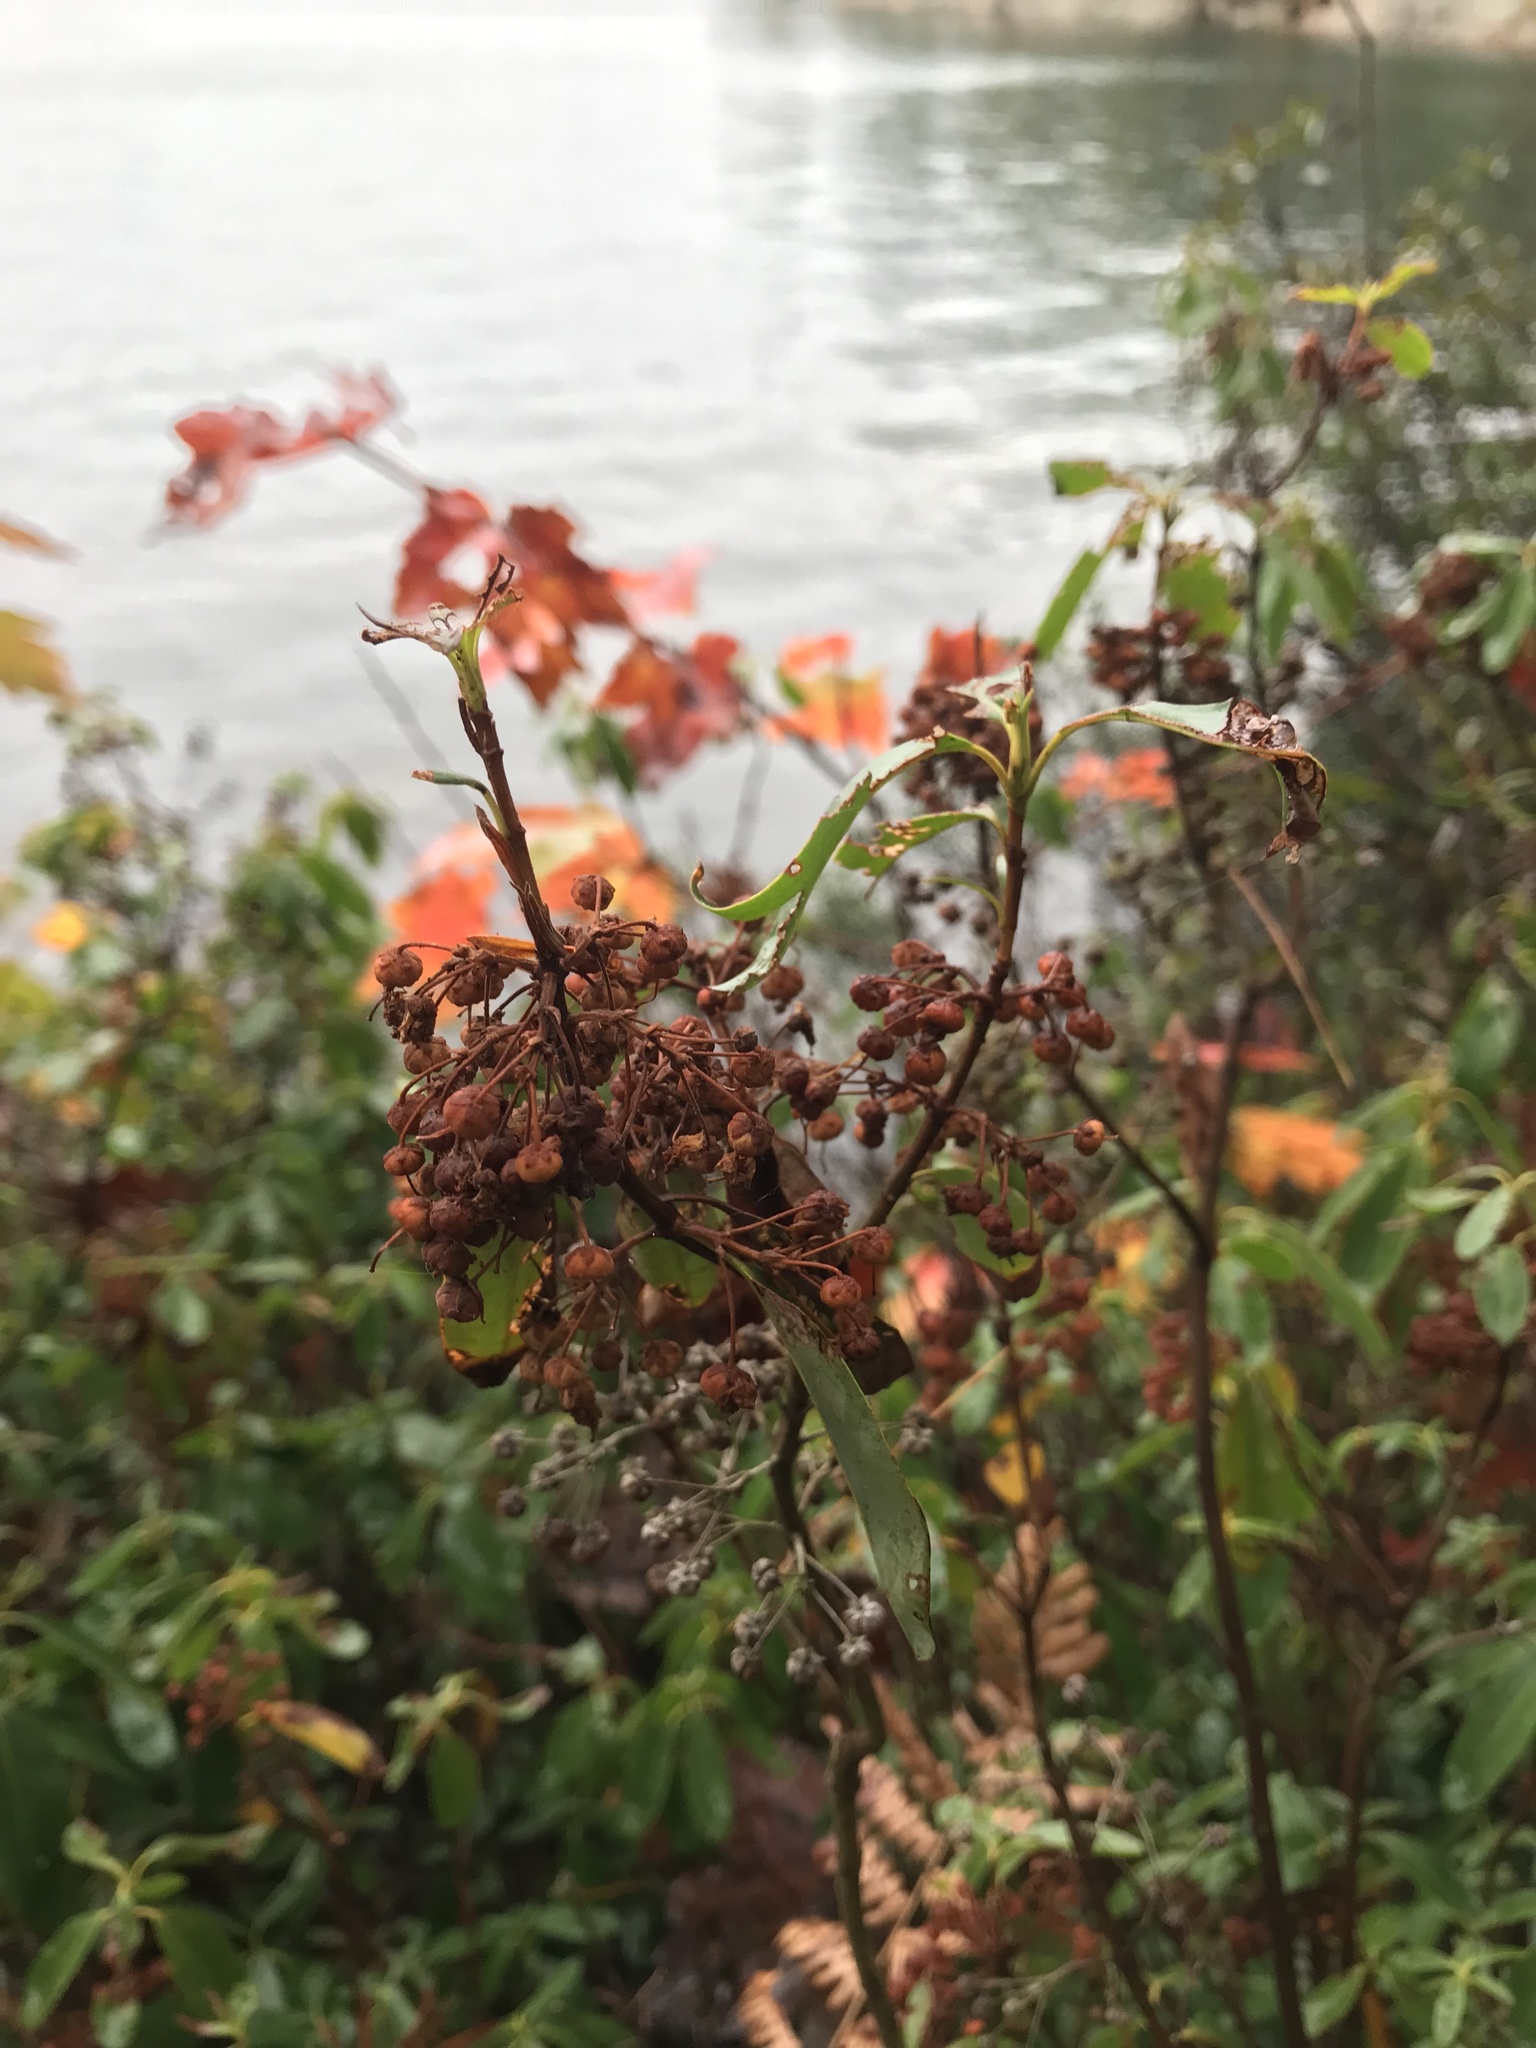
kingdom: Plantae
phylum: Tracheophyta
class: Magnoliopsida
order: Ericales
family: Ericaceae
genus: Kalmia
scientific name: Kalmia angustifolia
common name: Sheep-laurel
